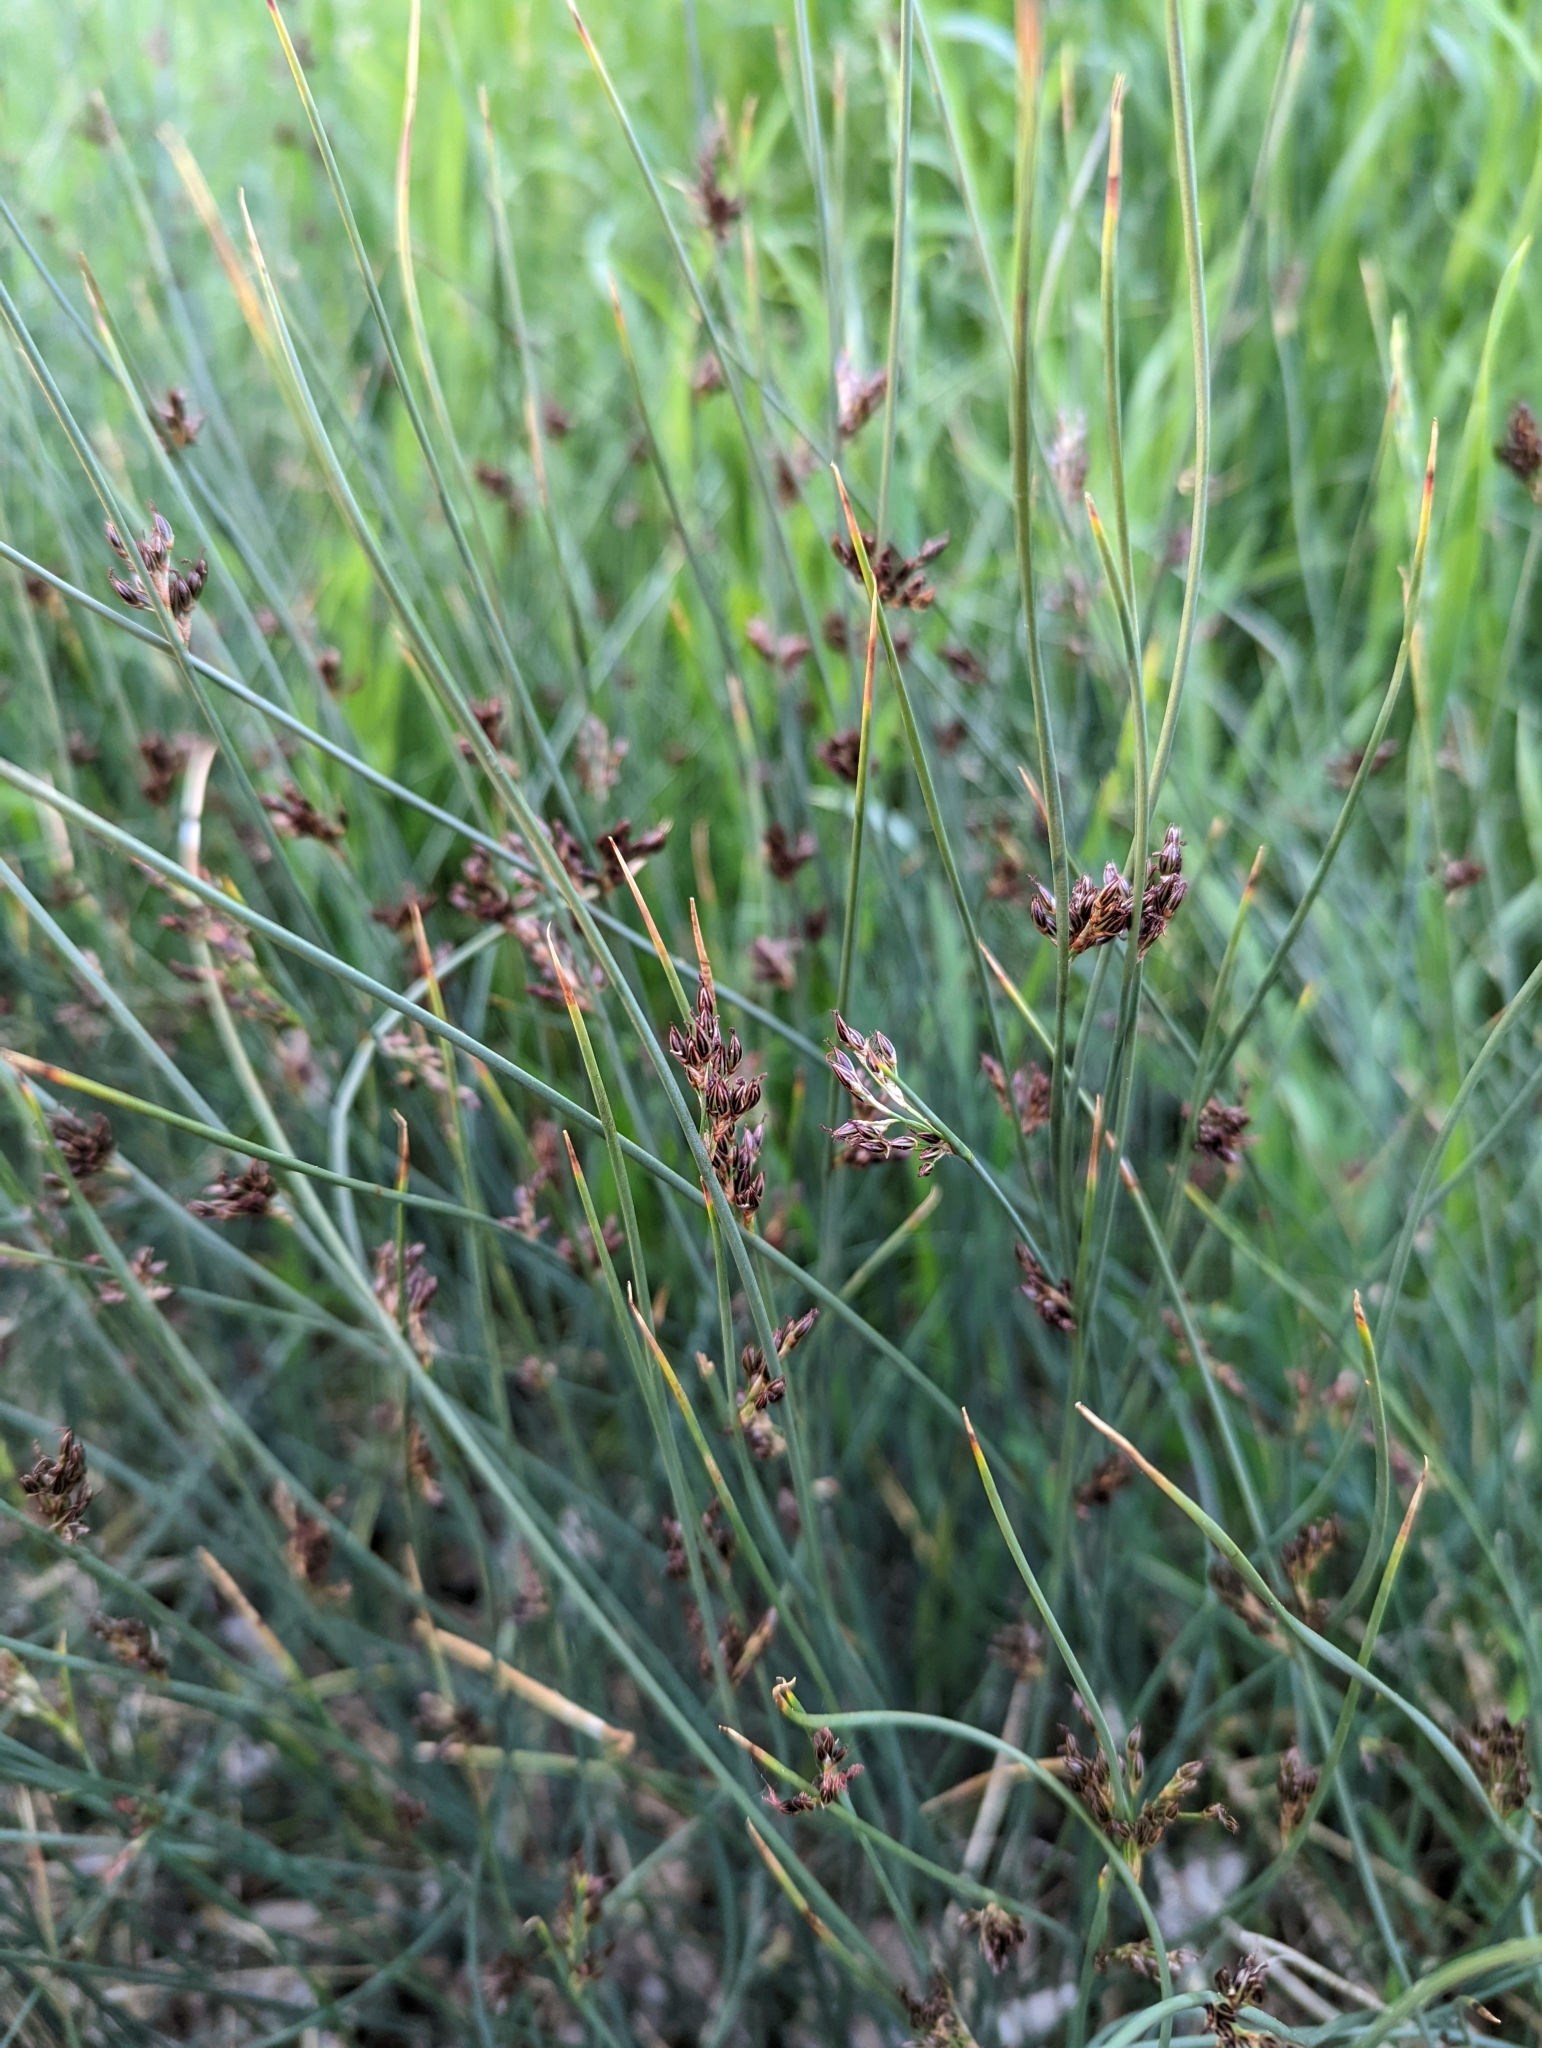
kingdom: Plantae
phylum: Tracheophyta
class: Liliopsida
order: Poales
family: Juncaceae
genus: Juncus
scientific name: Juncus balticus
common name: Baltic rush
